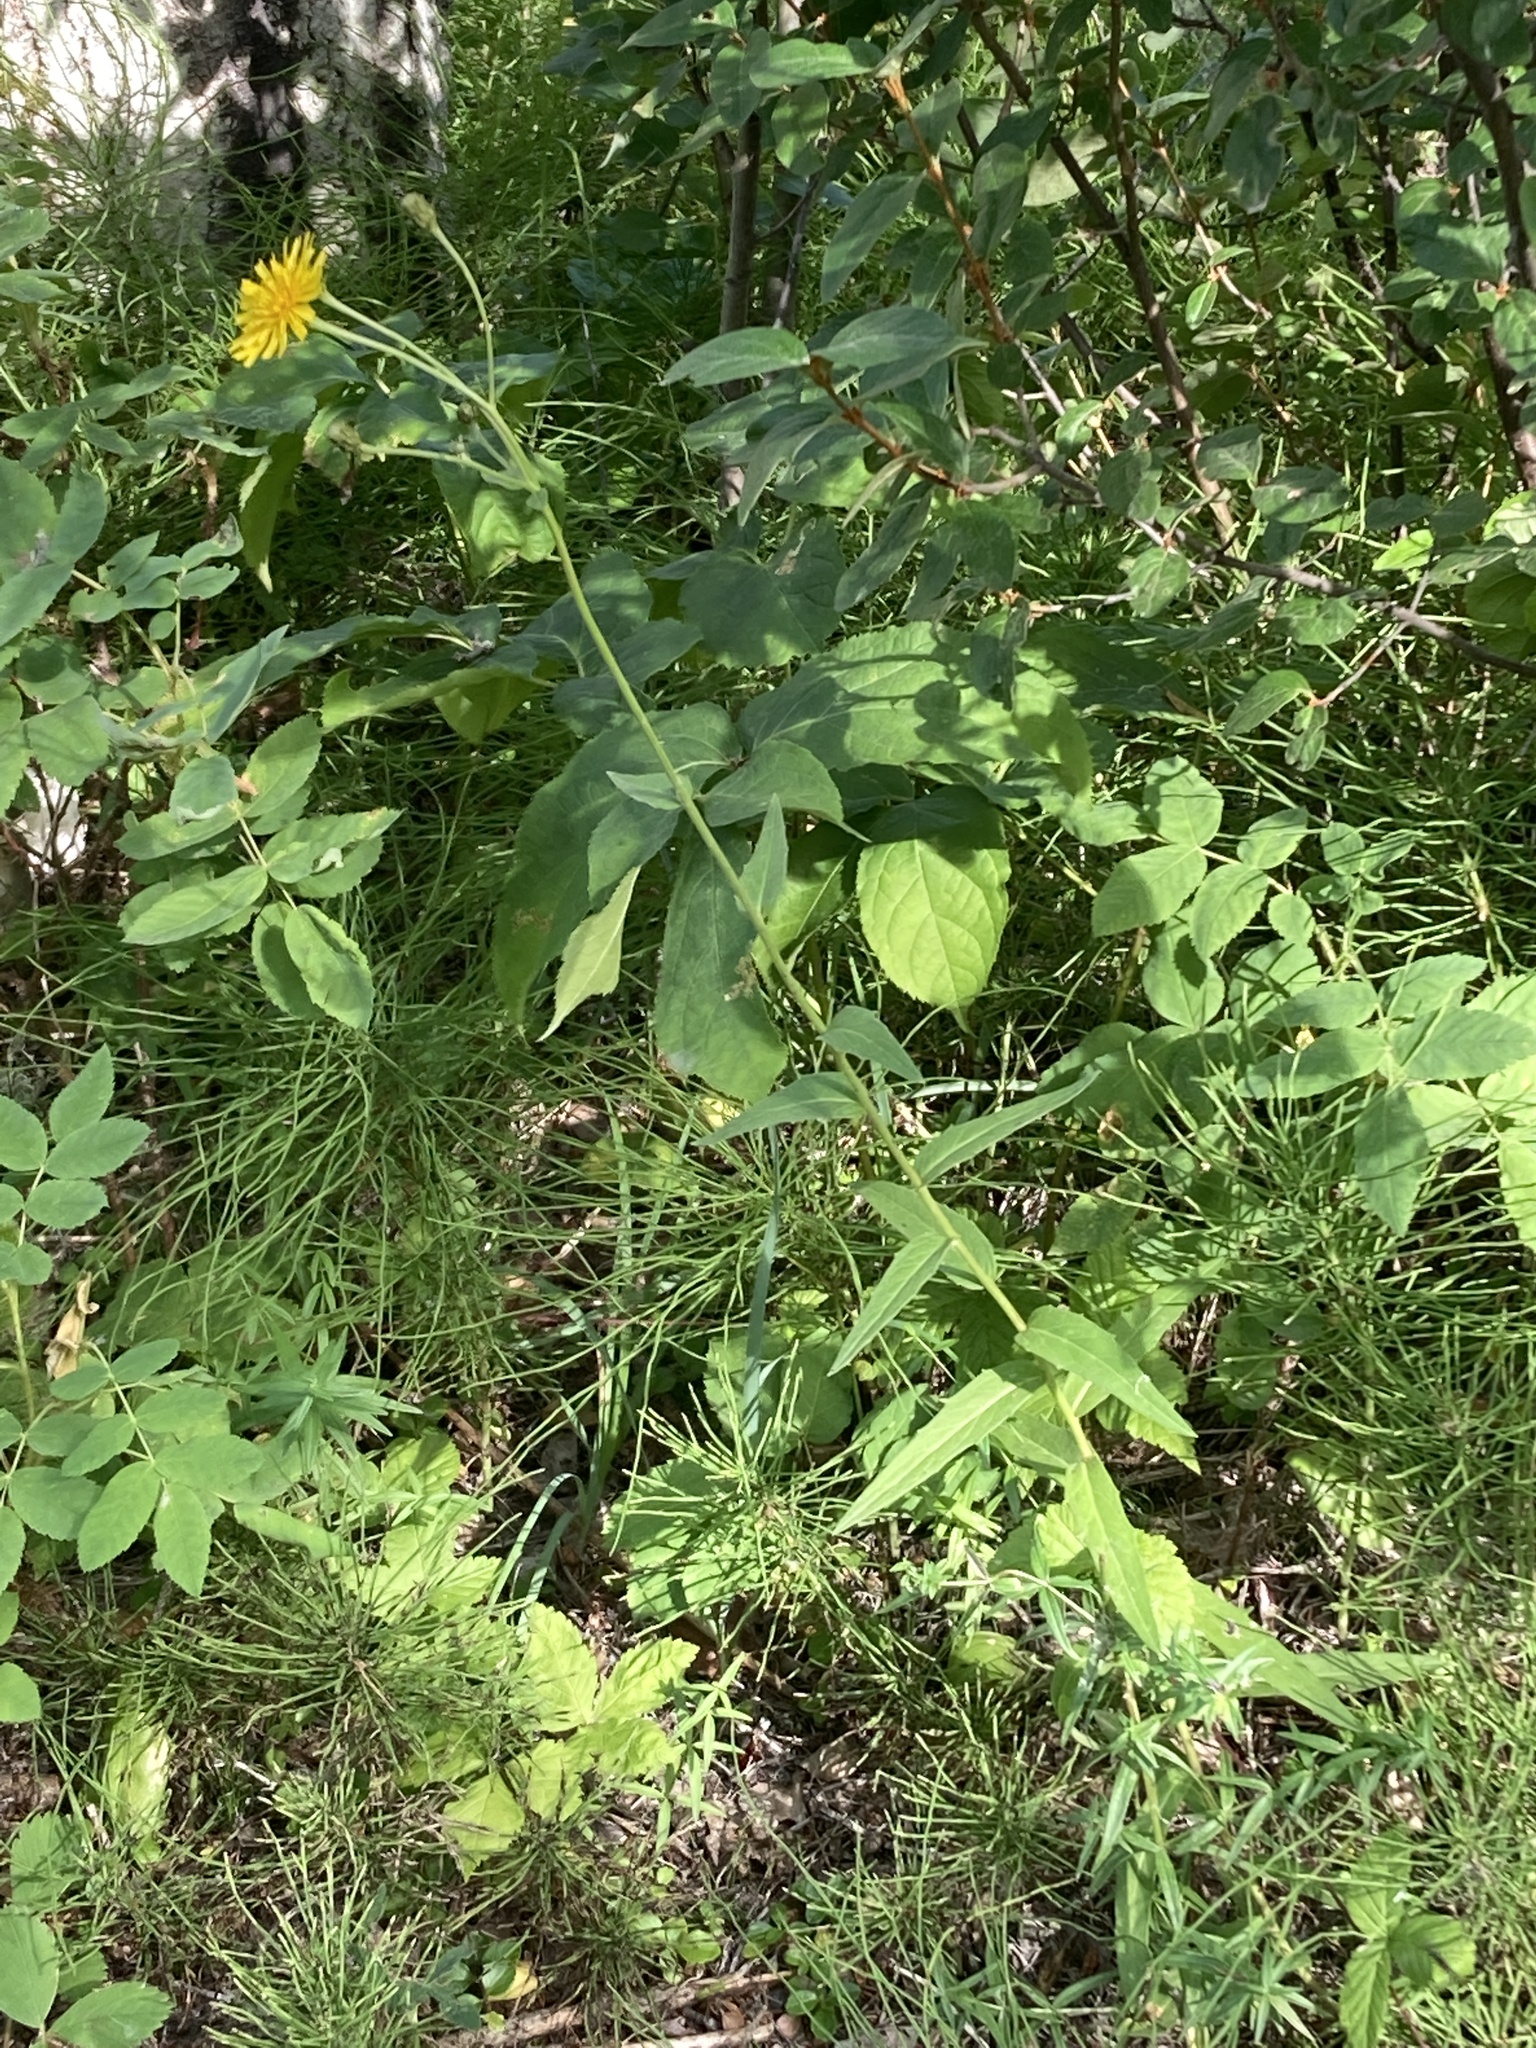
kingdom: Plantae
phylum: Tracheophyta
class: Magnoliopsida
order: Asterales
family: Asteraceae
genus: Hieracium
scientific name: Hieracium umbellatum
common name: Northern hawkweed
